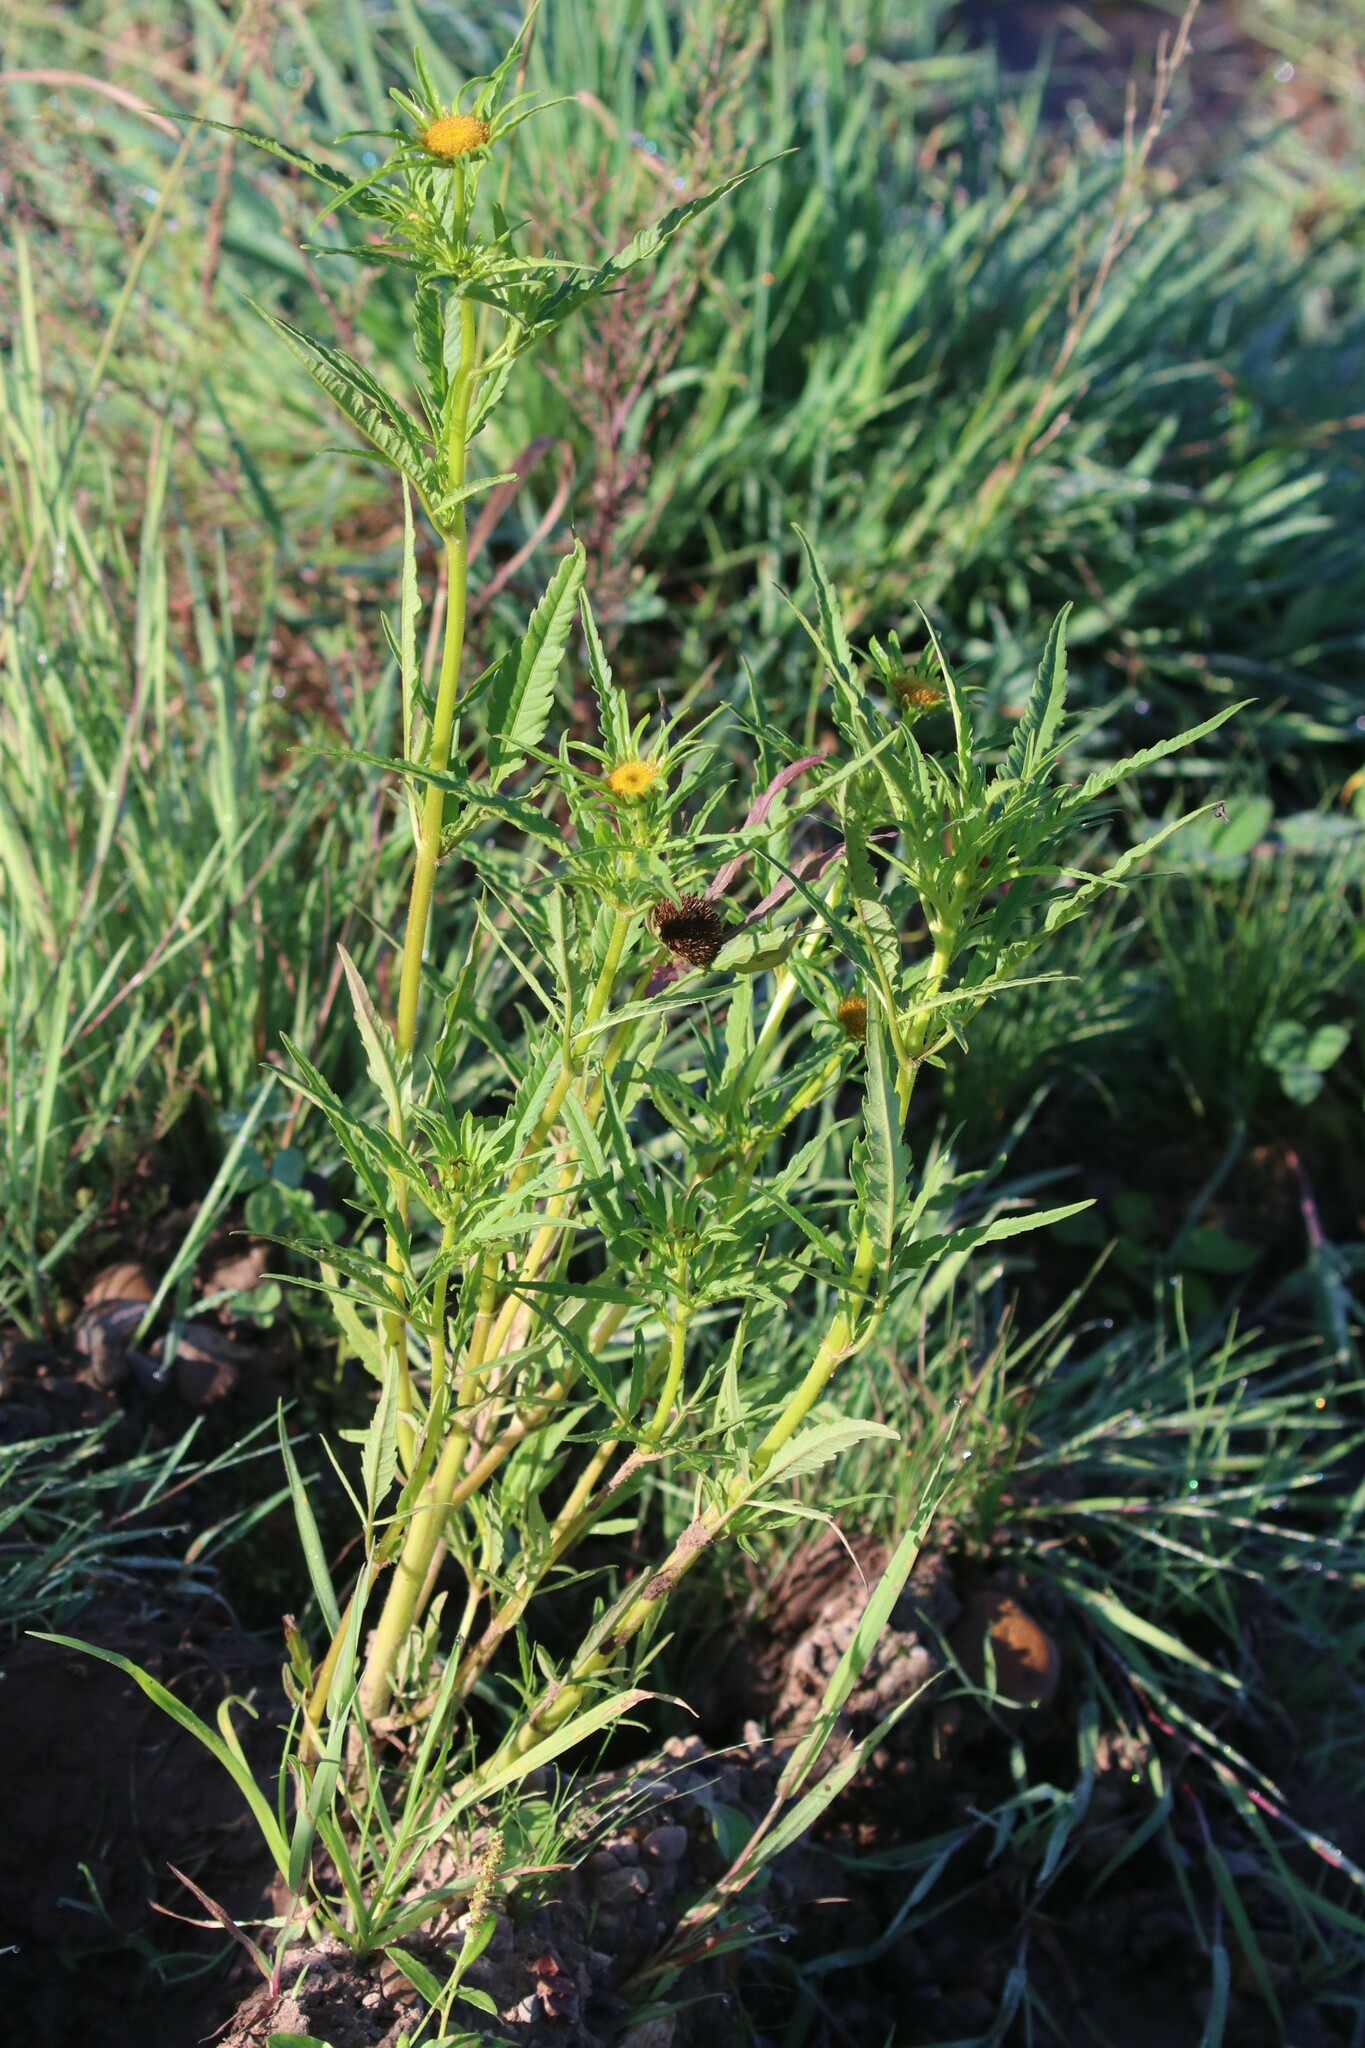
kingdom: Plantae
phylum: Tracheophyta
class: Magnoliopsida
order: Asterales
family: Asteraceae
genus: Bidens
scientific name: Bidens radiata
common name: Radiating bur-marigold
